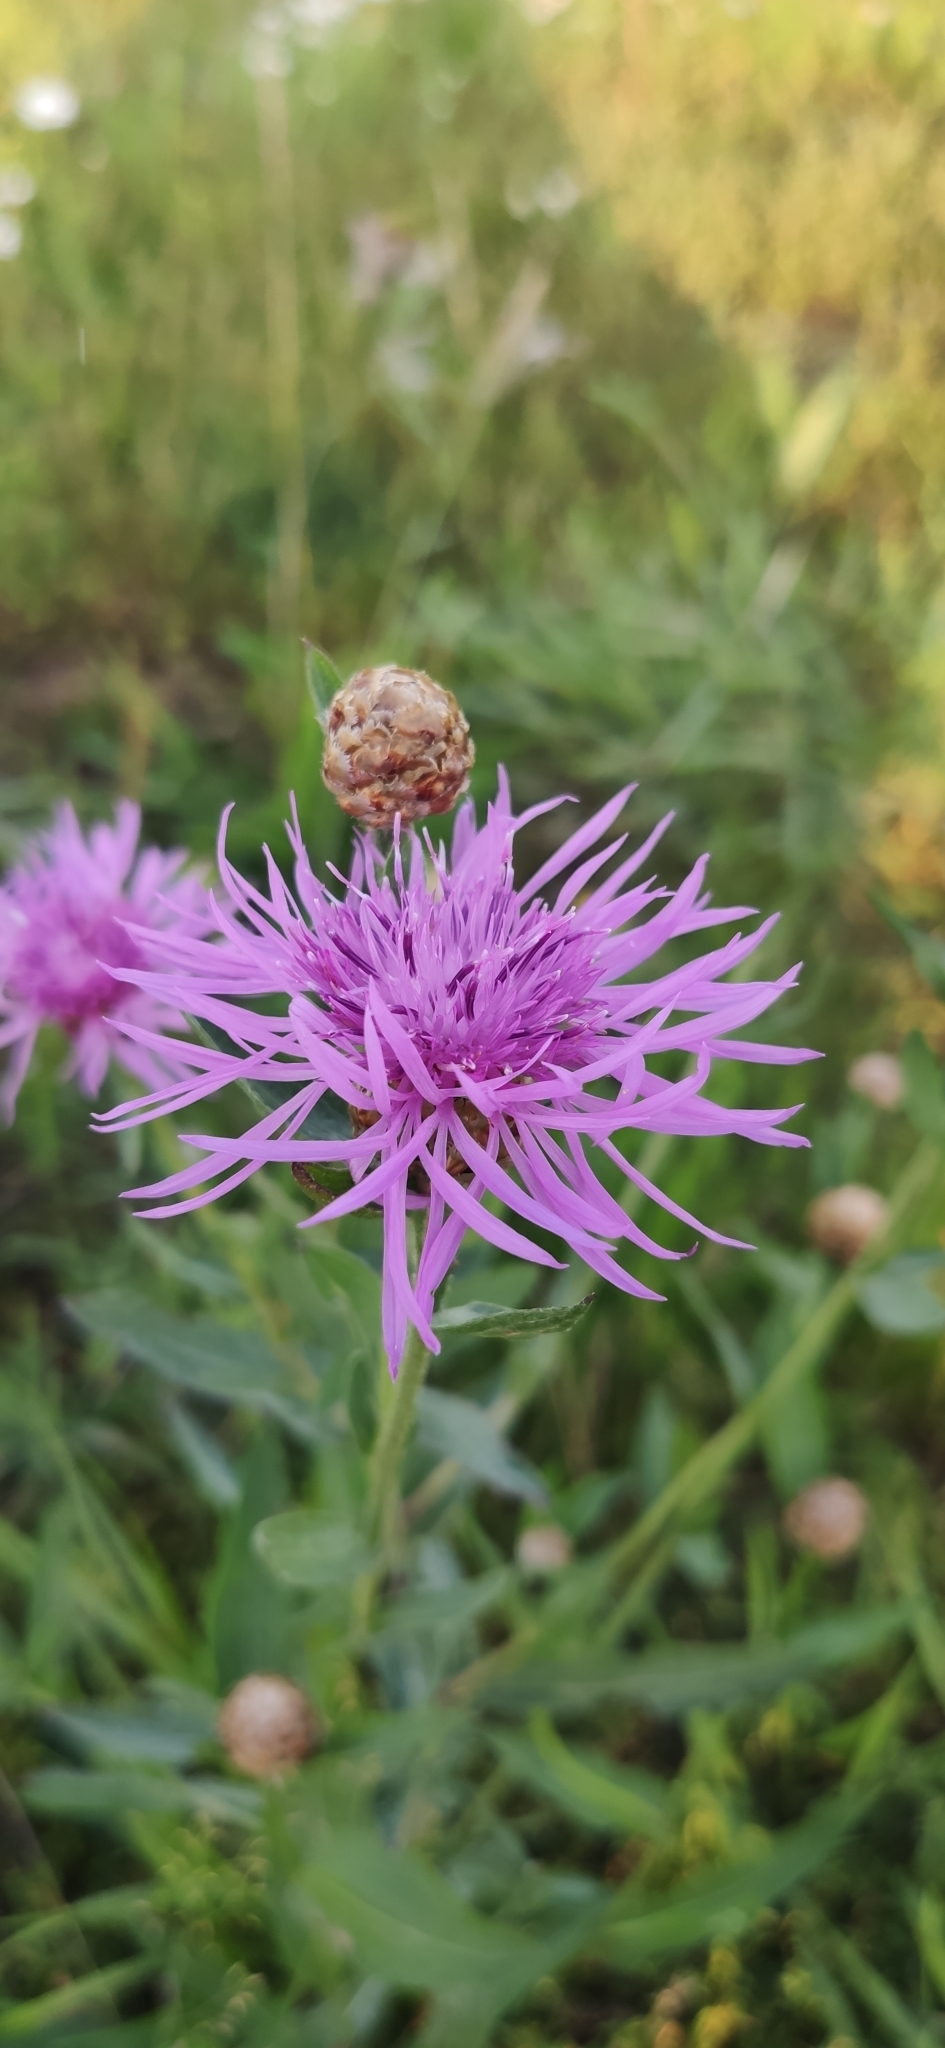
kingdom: Plantae
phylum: Tracheophyta
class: Magnoliopsida
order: Asterales
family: Asteraceae
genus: Centaurea
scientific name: Centaurea jacea
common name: Brown knapweed
